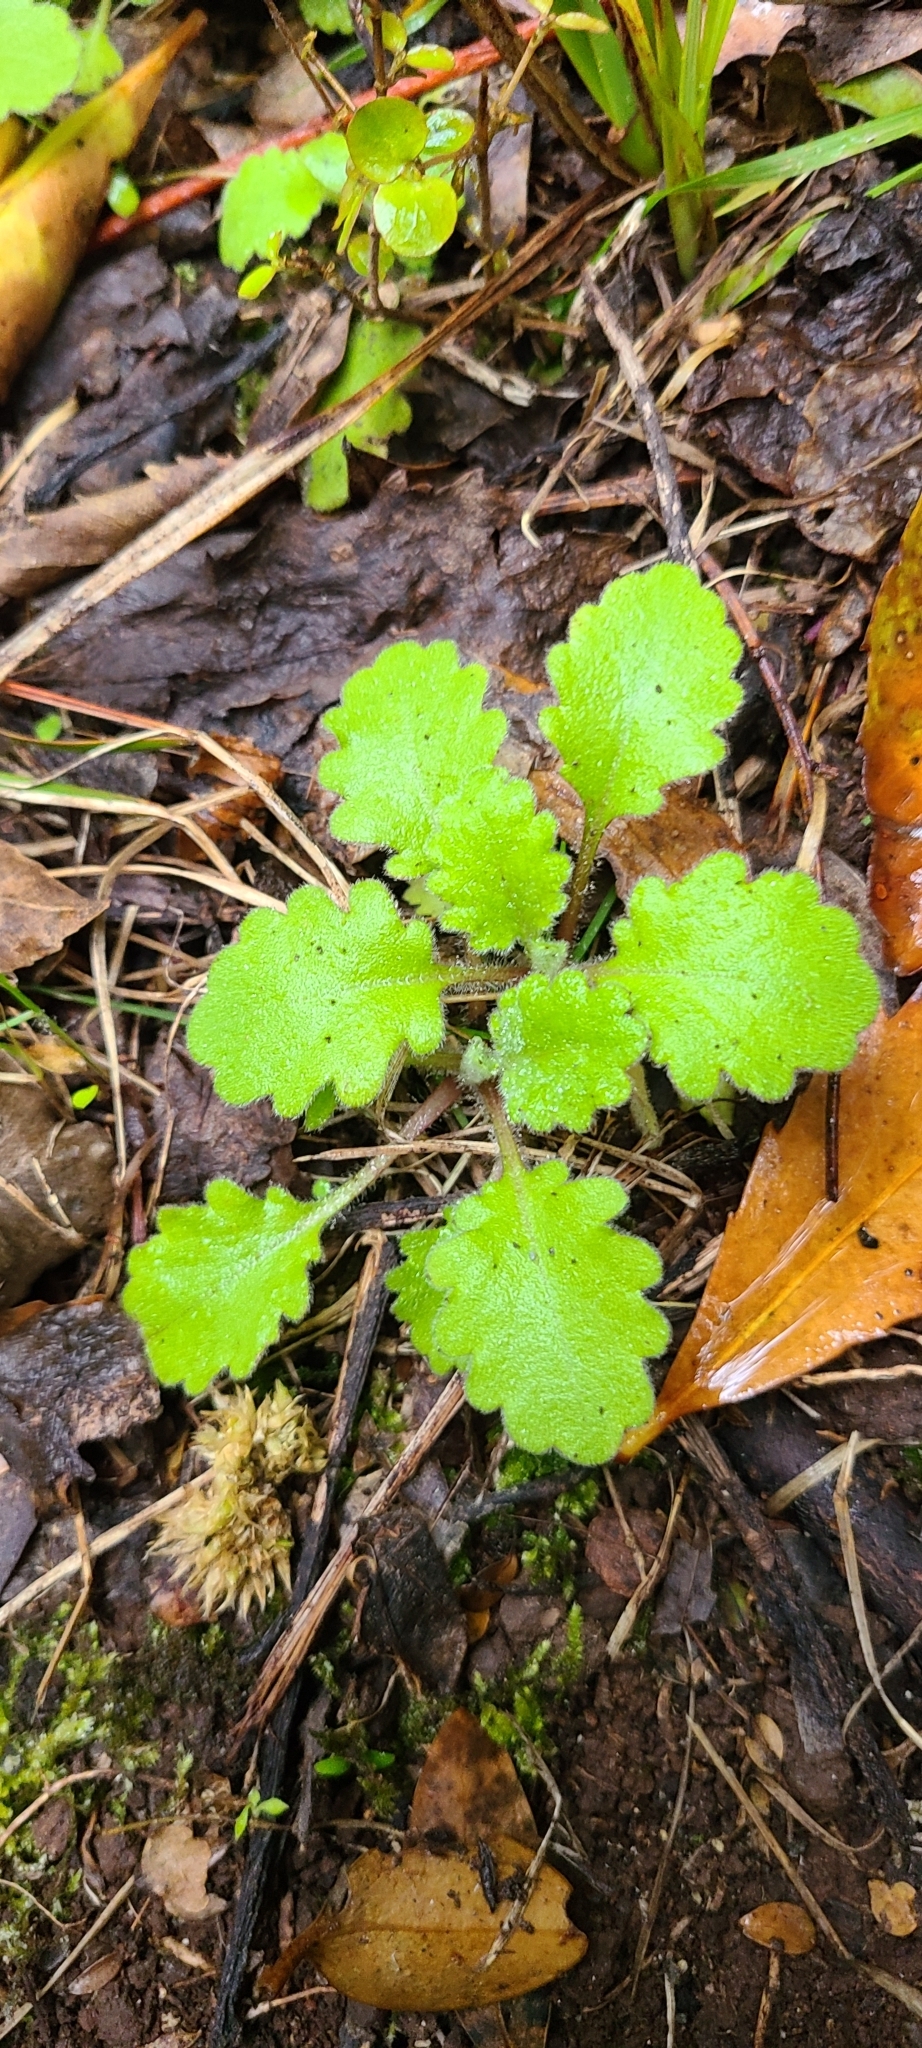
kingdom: Plantae
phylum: Tracheophyta
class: Magnoliopsida
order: Asterales
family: Asteraceae
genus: Lagenophora
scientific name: Lagenophora pinnatifida
